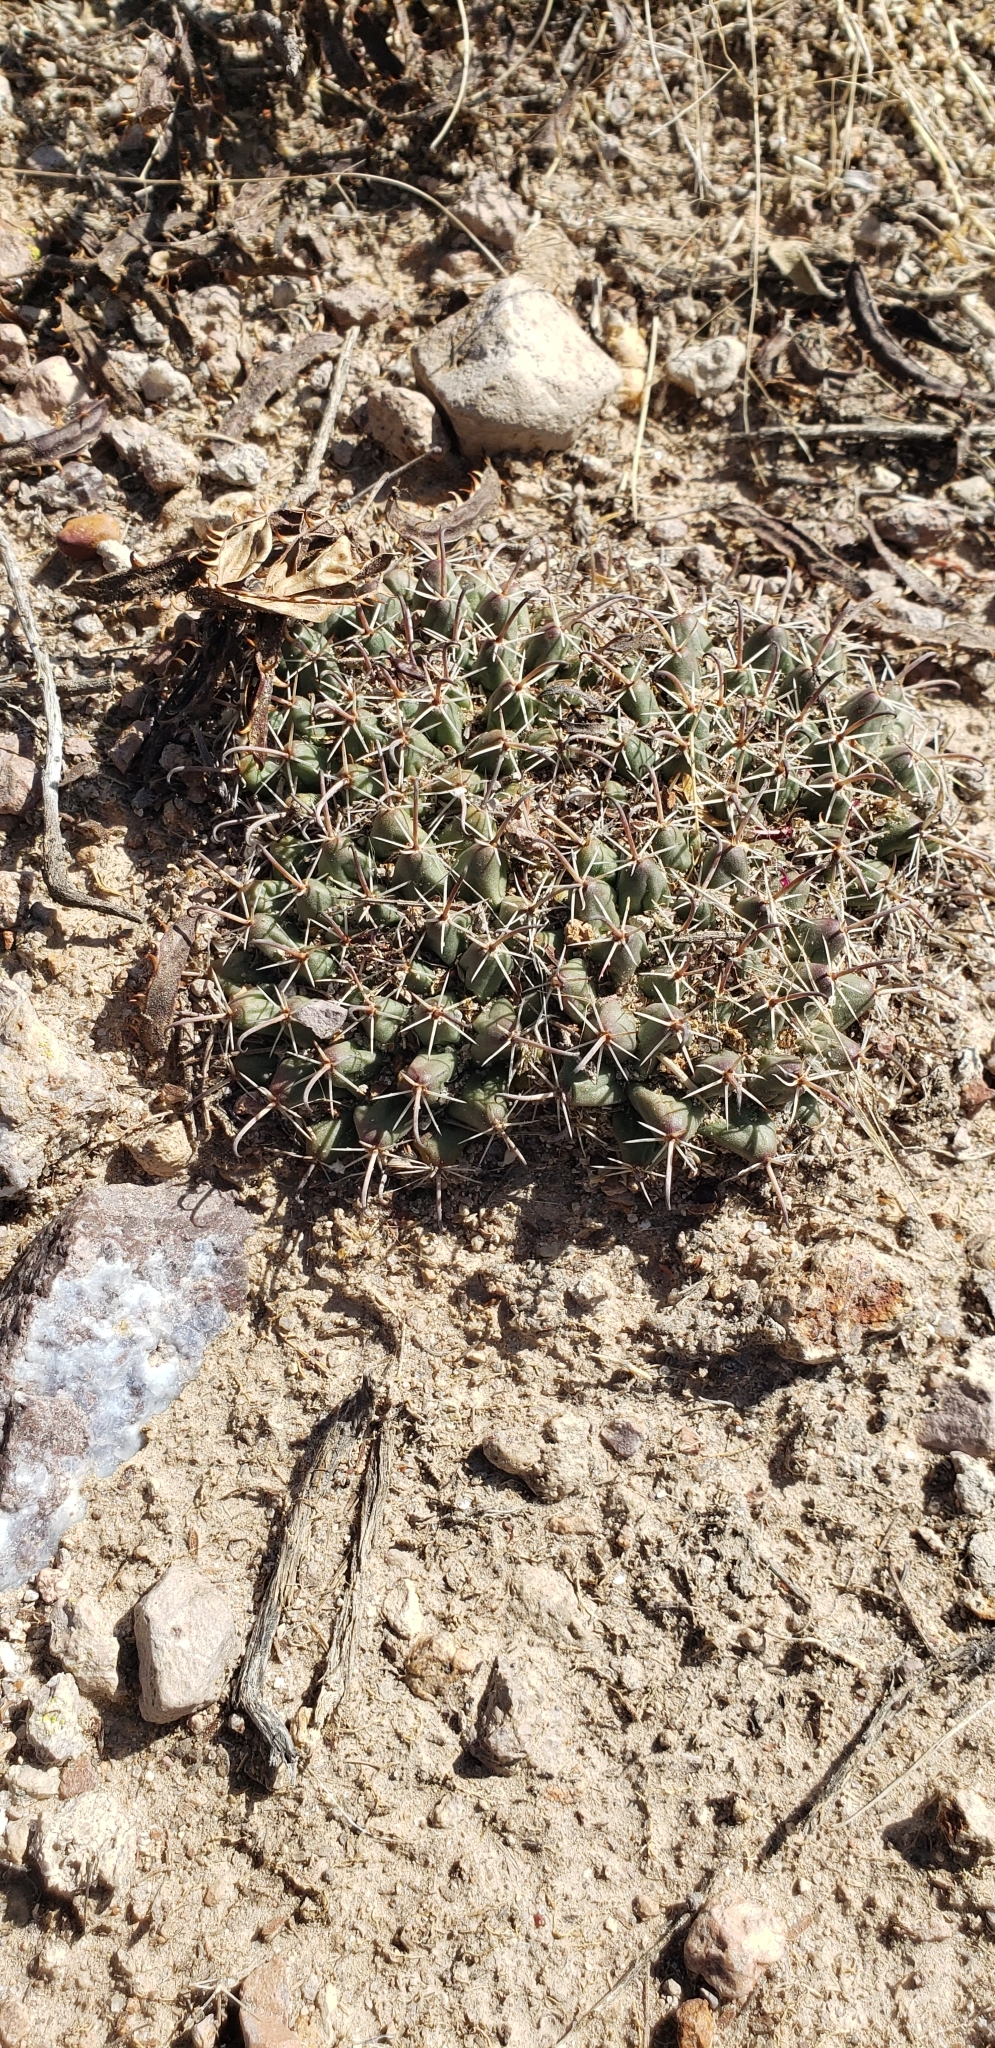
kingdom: Plantae
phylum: Tracheophyta
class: Magnoliopsida
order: Caryophyllales
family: Cactaceae
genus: Mammillaria
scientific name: Mammillaria uncinata
